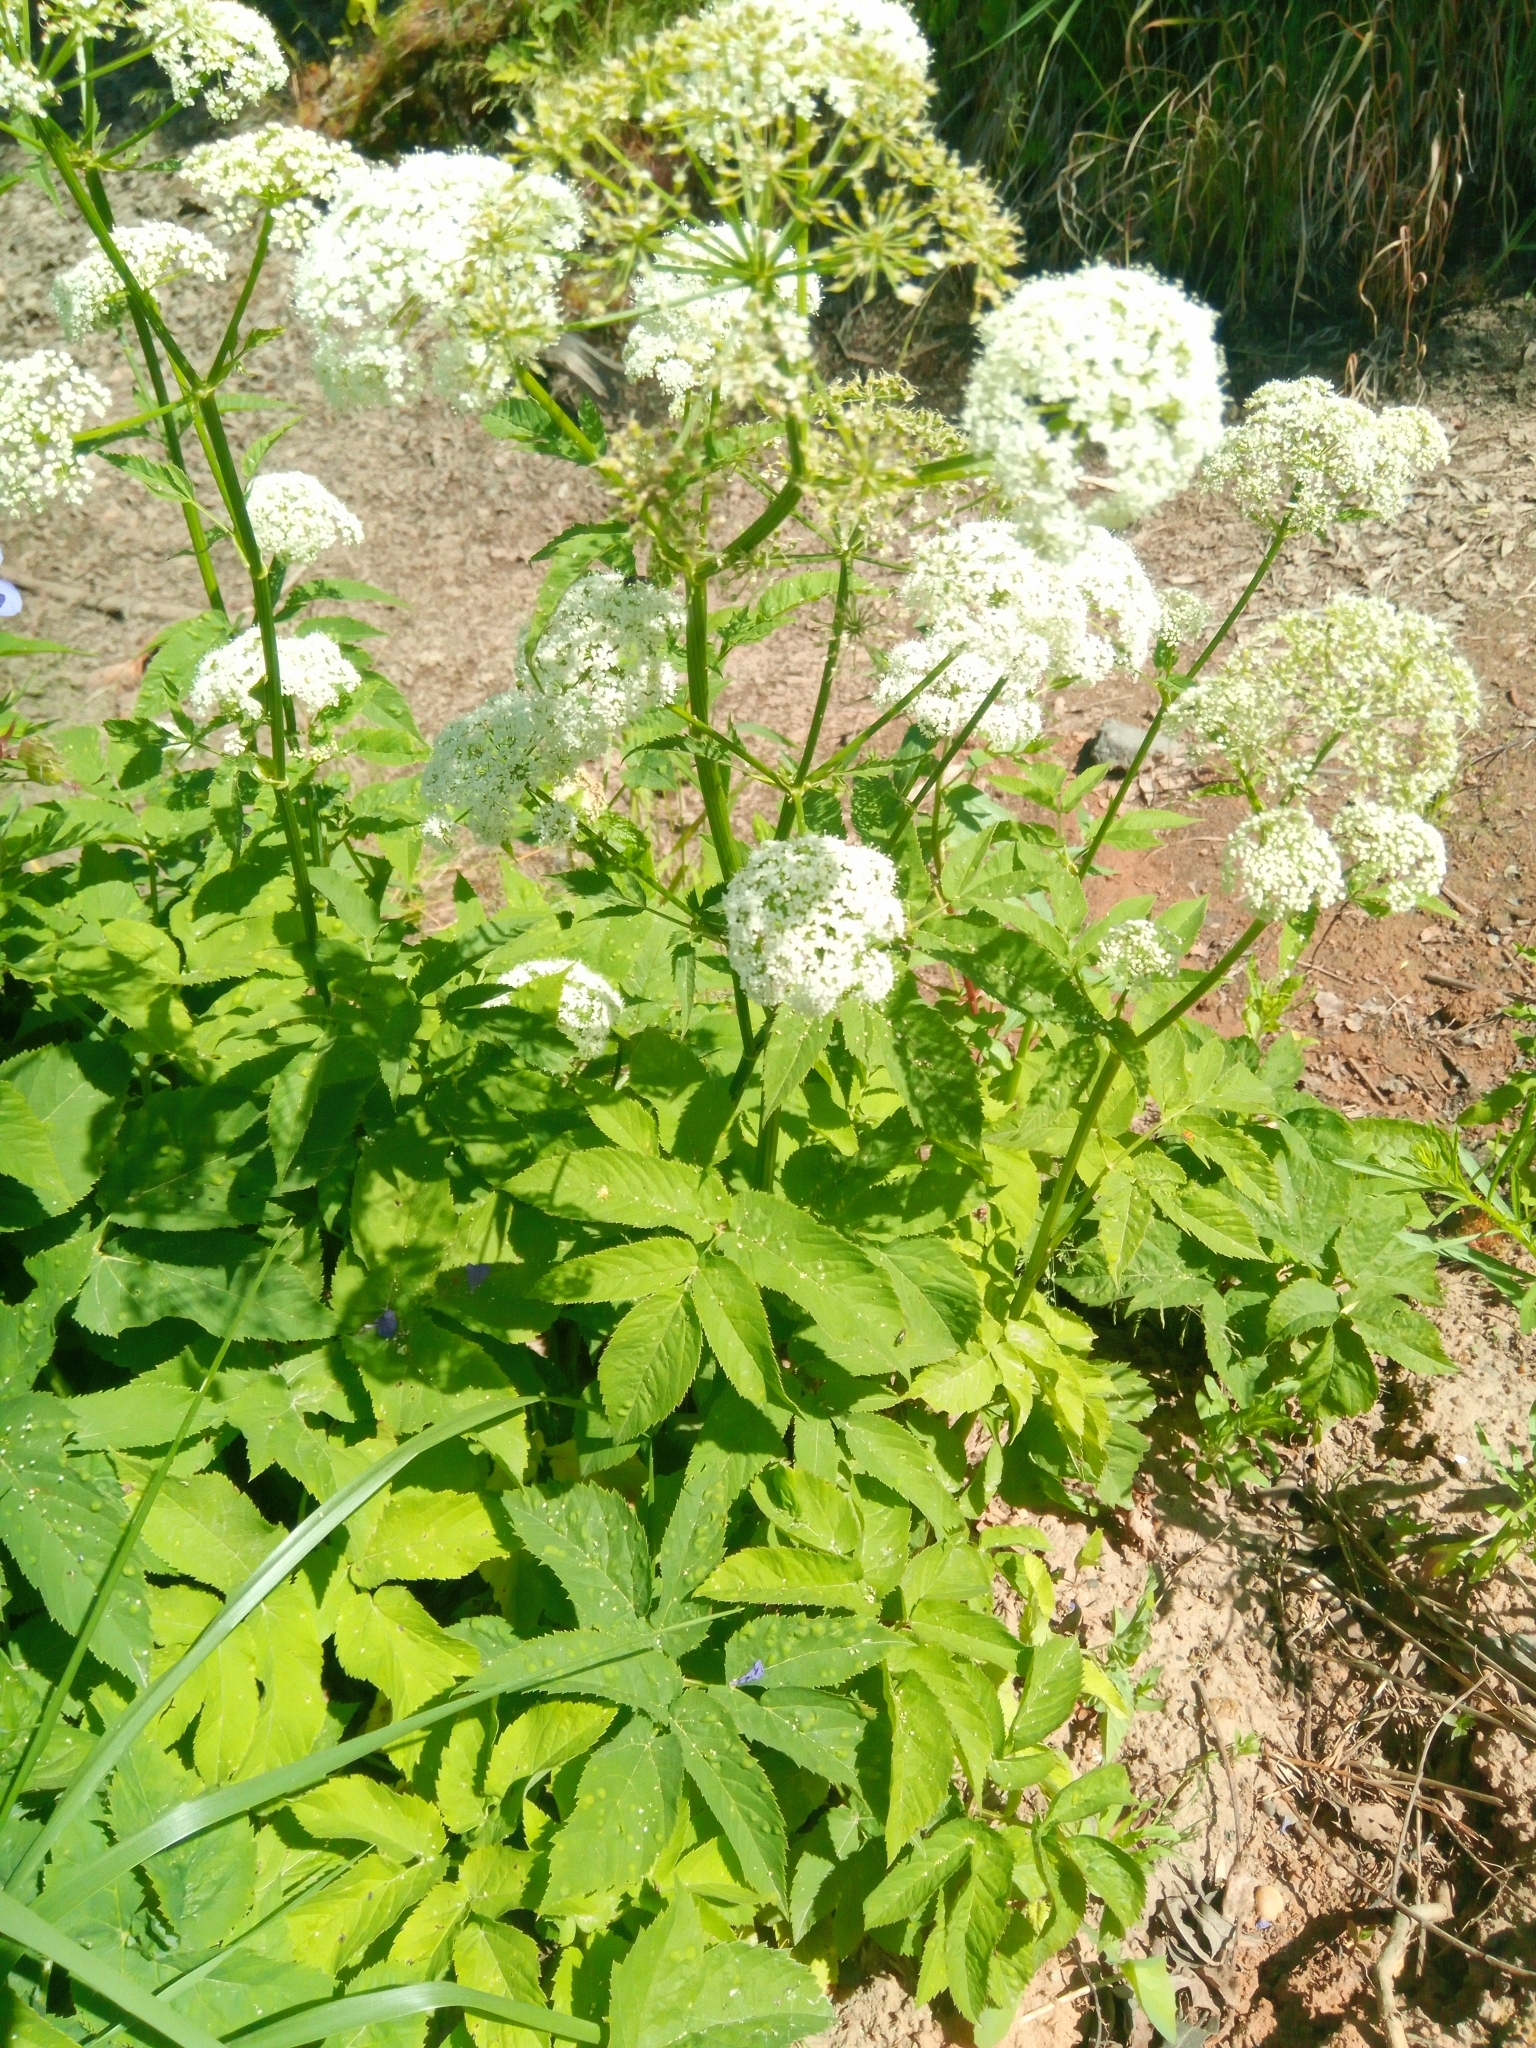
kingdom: Plantae
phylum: Tracheophyta
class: Magnoliopsida
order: Apiales
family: Apiaceae
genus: Aegopodium
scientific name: Aegopodium podagraria
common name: Ground-elder
